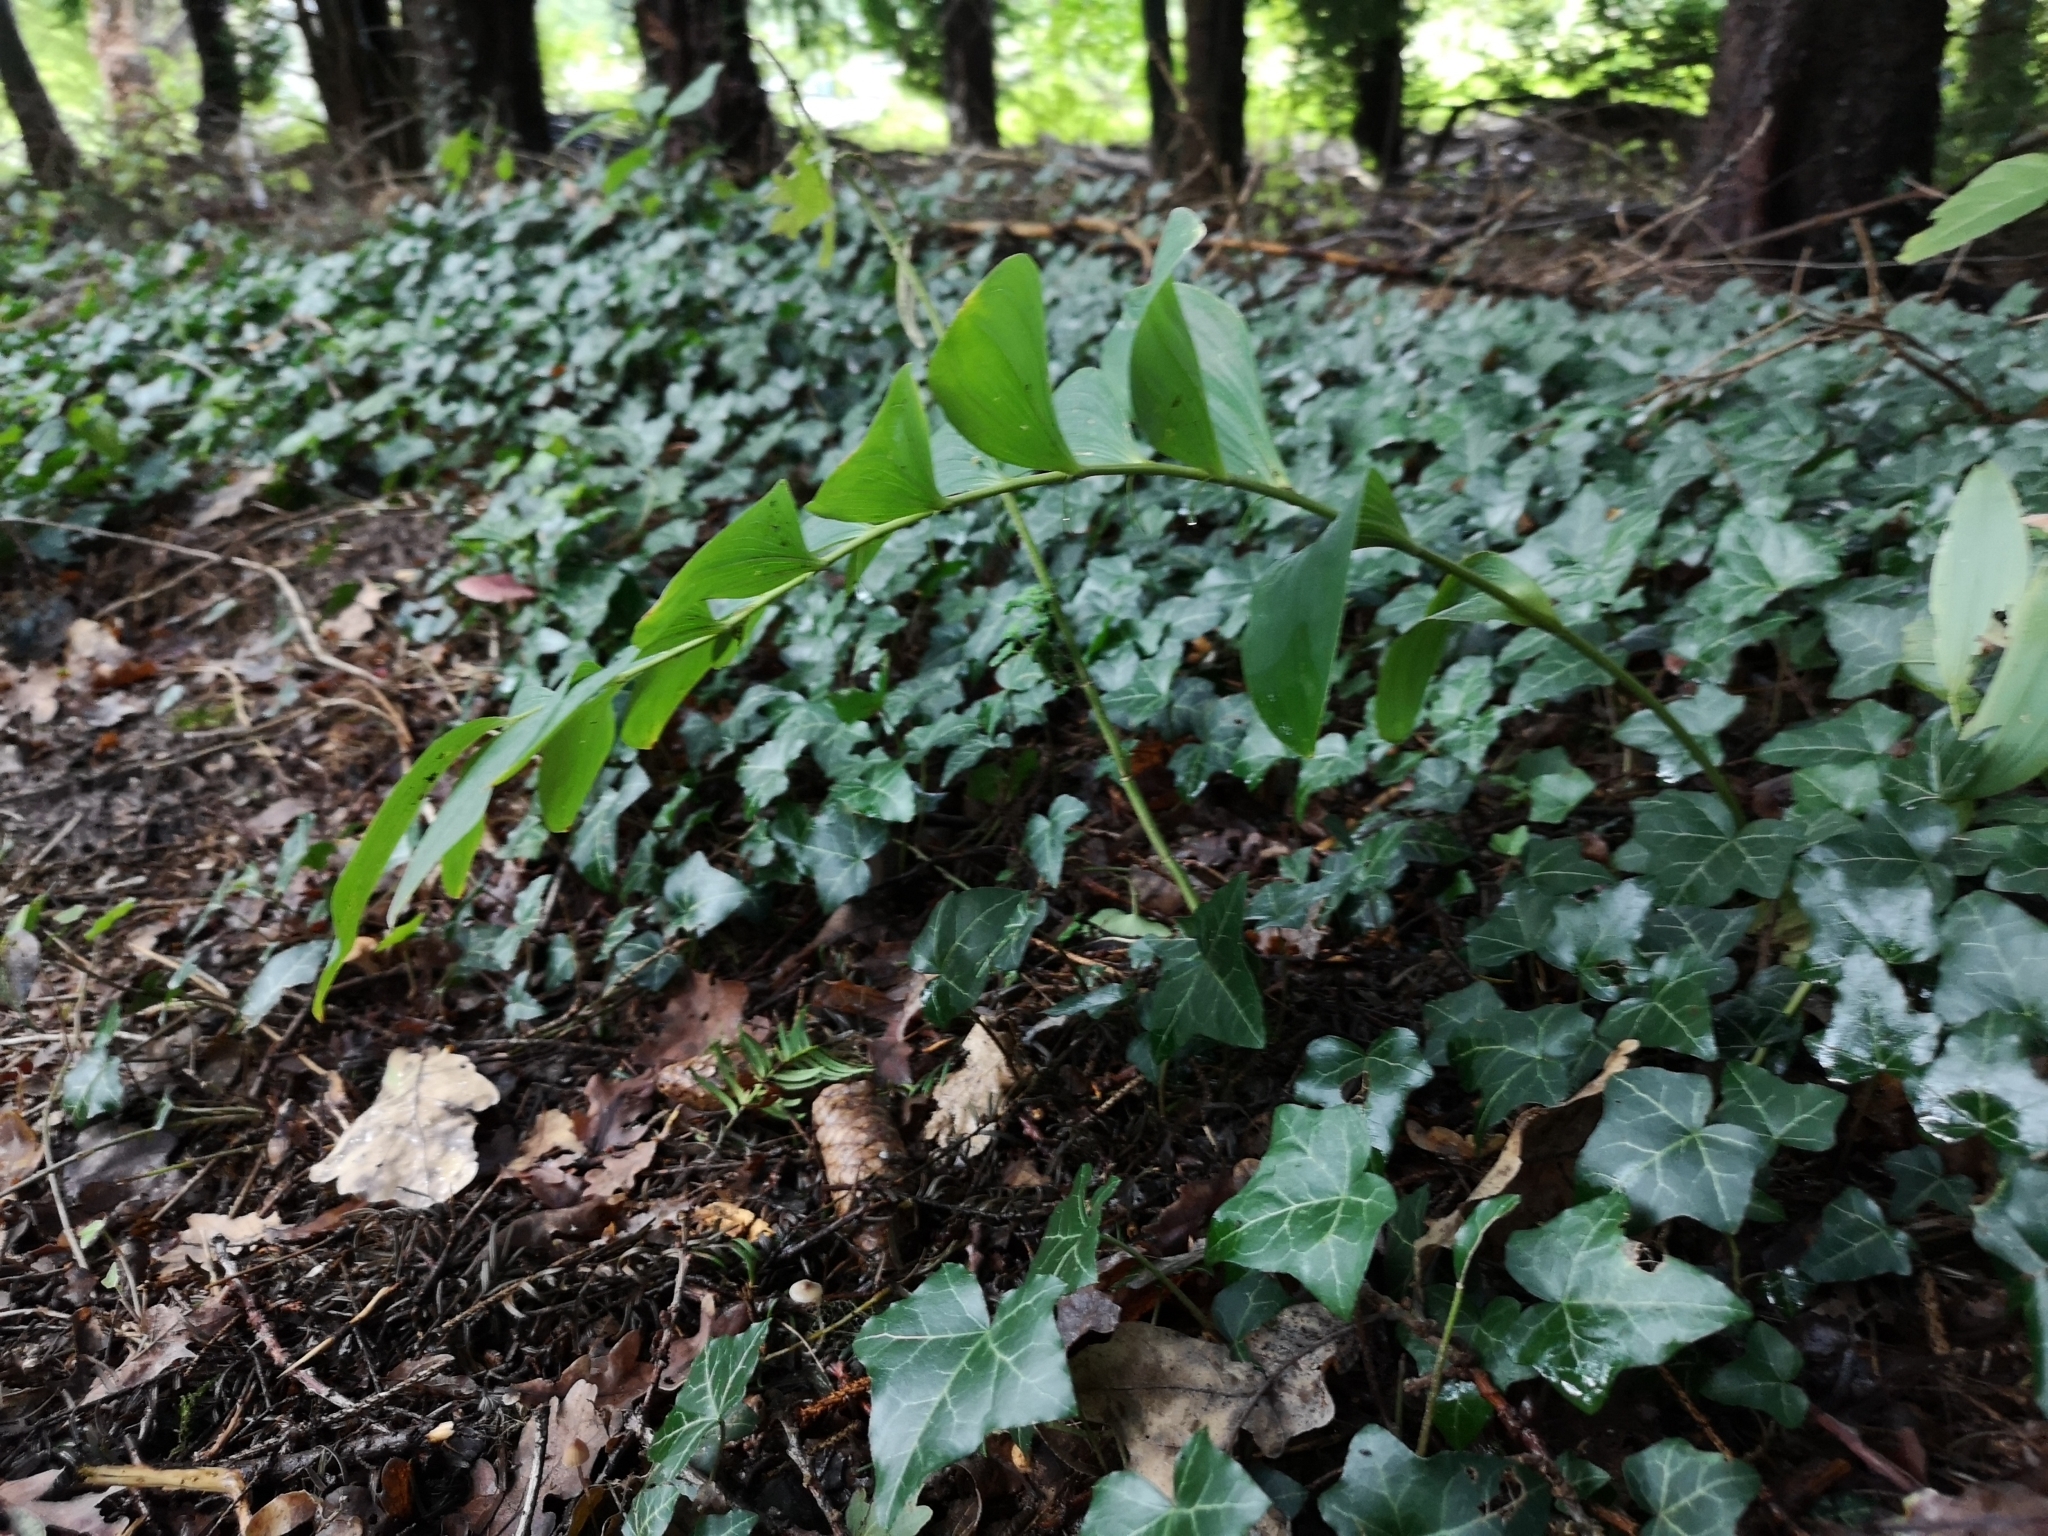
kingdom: Plantae
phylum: Tracheophyta
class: Liliopsida
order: Asparagales
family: Asparagaceae
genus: Polygonatum
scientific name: Polygonatum multiflorum
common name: Solomon's-seal
